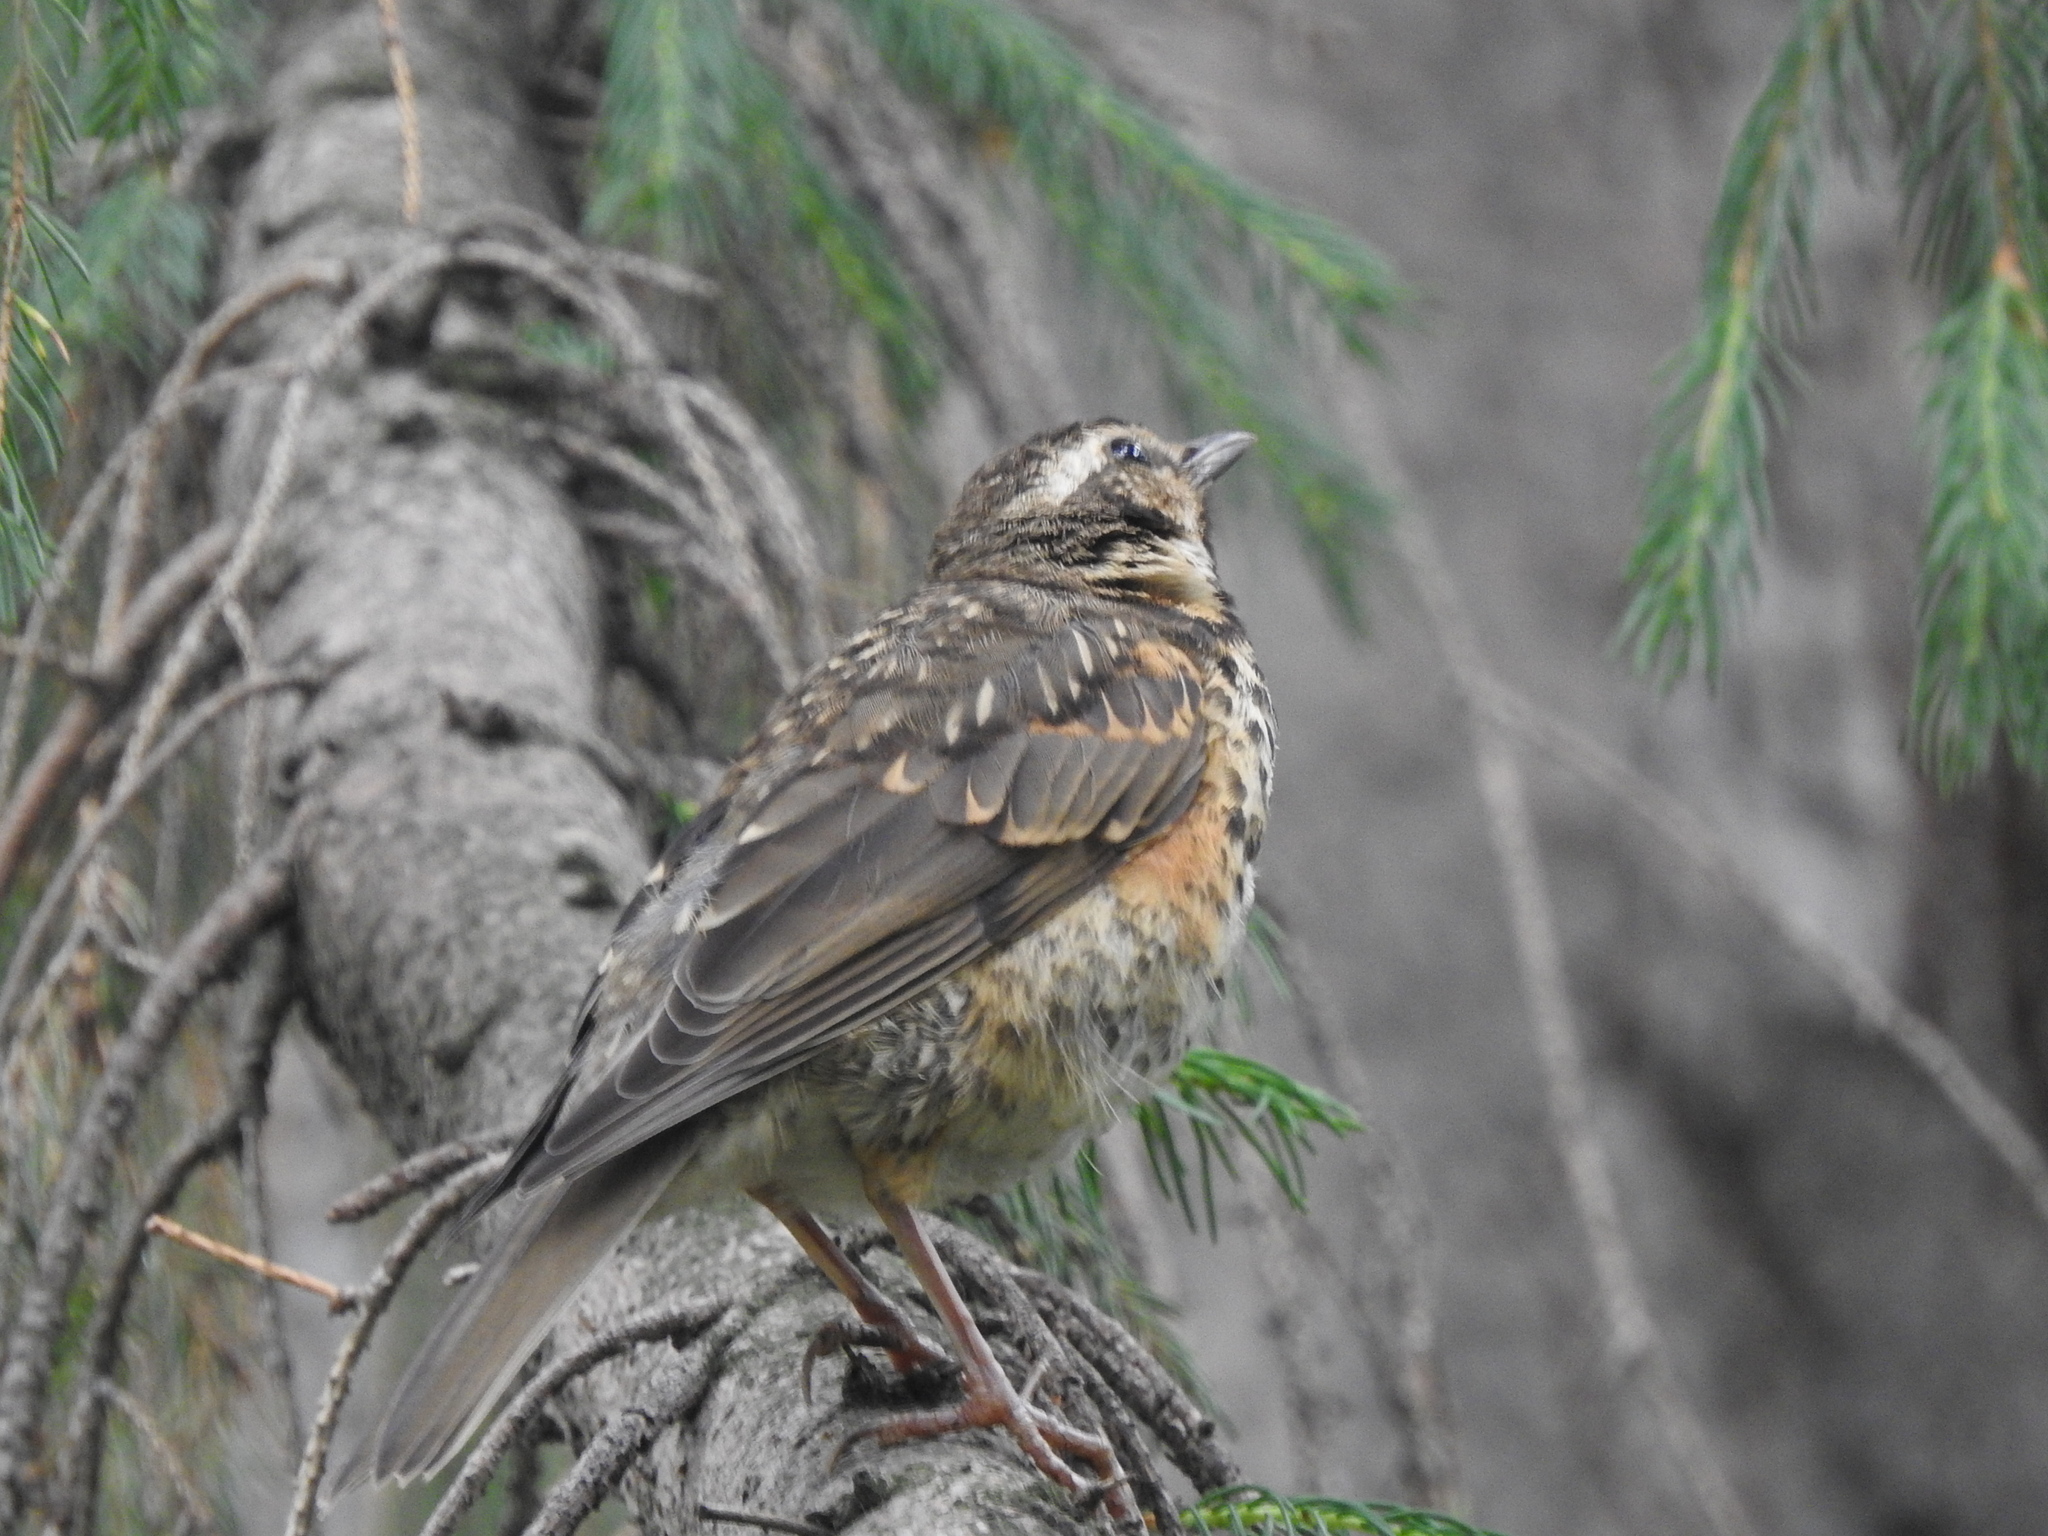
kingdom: Animalia
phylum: Chordata
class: Aves
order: Passeriformes
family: Turdidae
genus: Turdus
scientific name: Turdus iliacus
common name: Redwing
